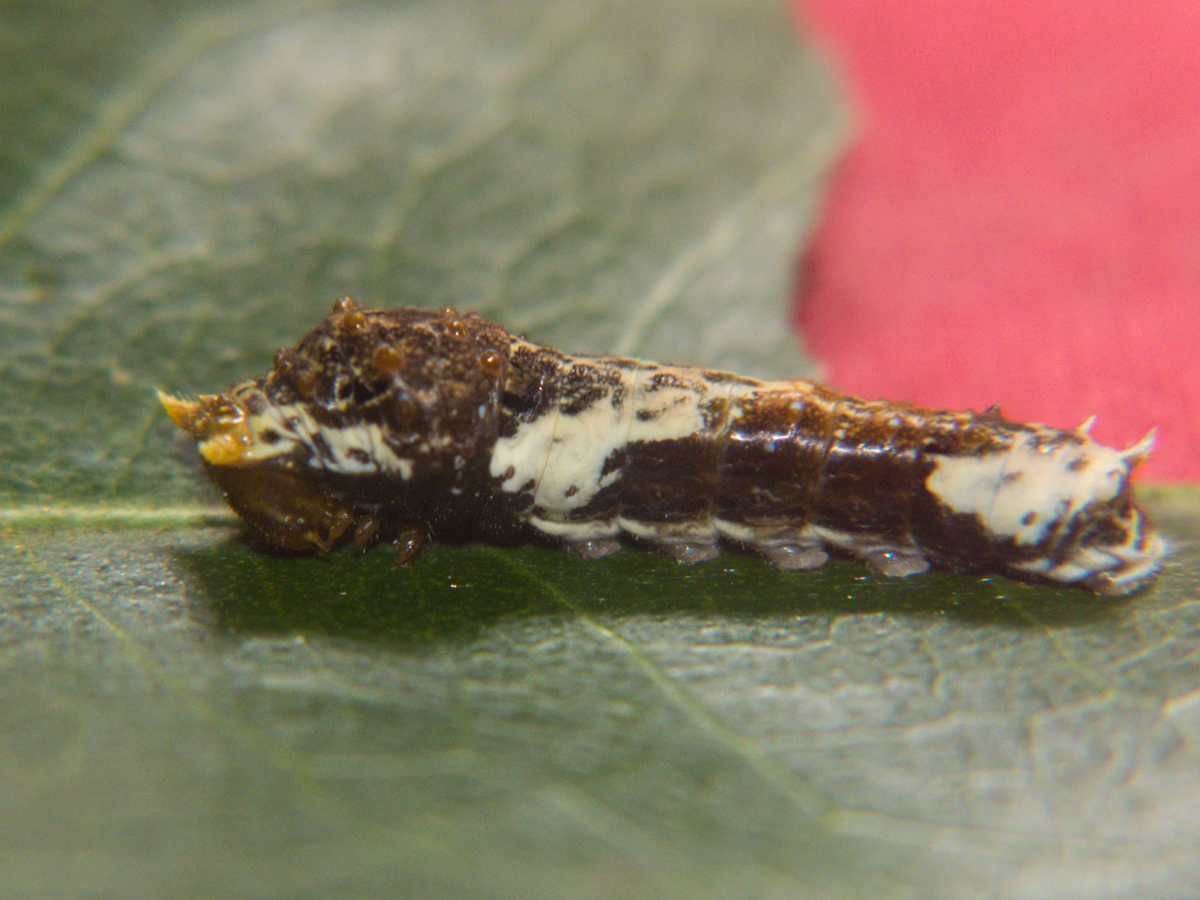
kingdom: Animalia
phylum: Arthropoda
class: Insecta
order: Lepidoptera
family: Papilionidae
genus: Papilio
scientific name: Papilio polytes
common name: Common mormon
